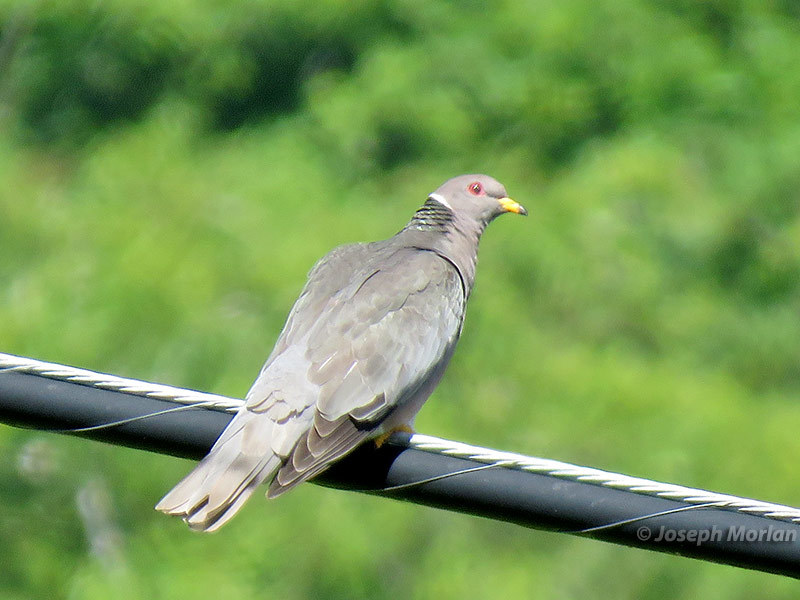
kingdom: Animalia
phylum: Chordata
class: Aves
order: Columbiformes
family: Columbidae
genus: Patagioenas
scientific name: Patagioenas fasciata
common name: Band-tailed pigeon
